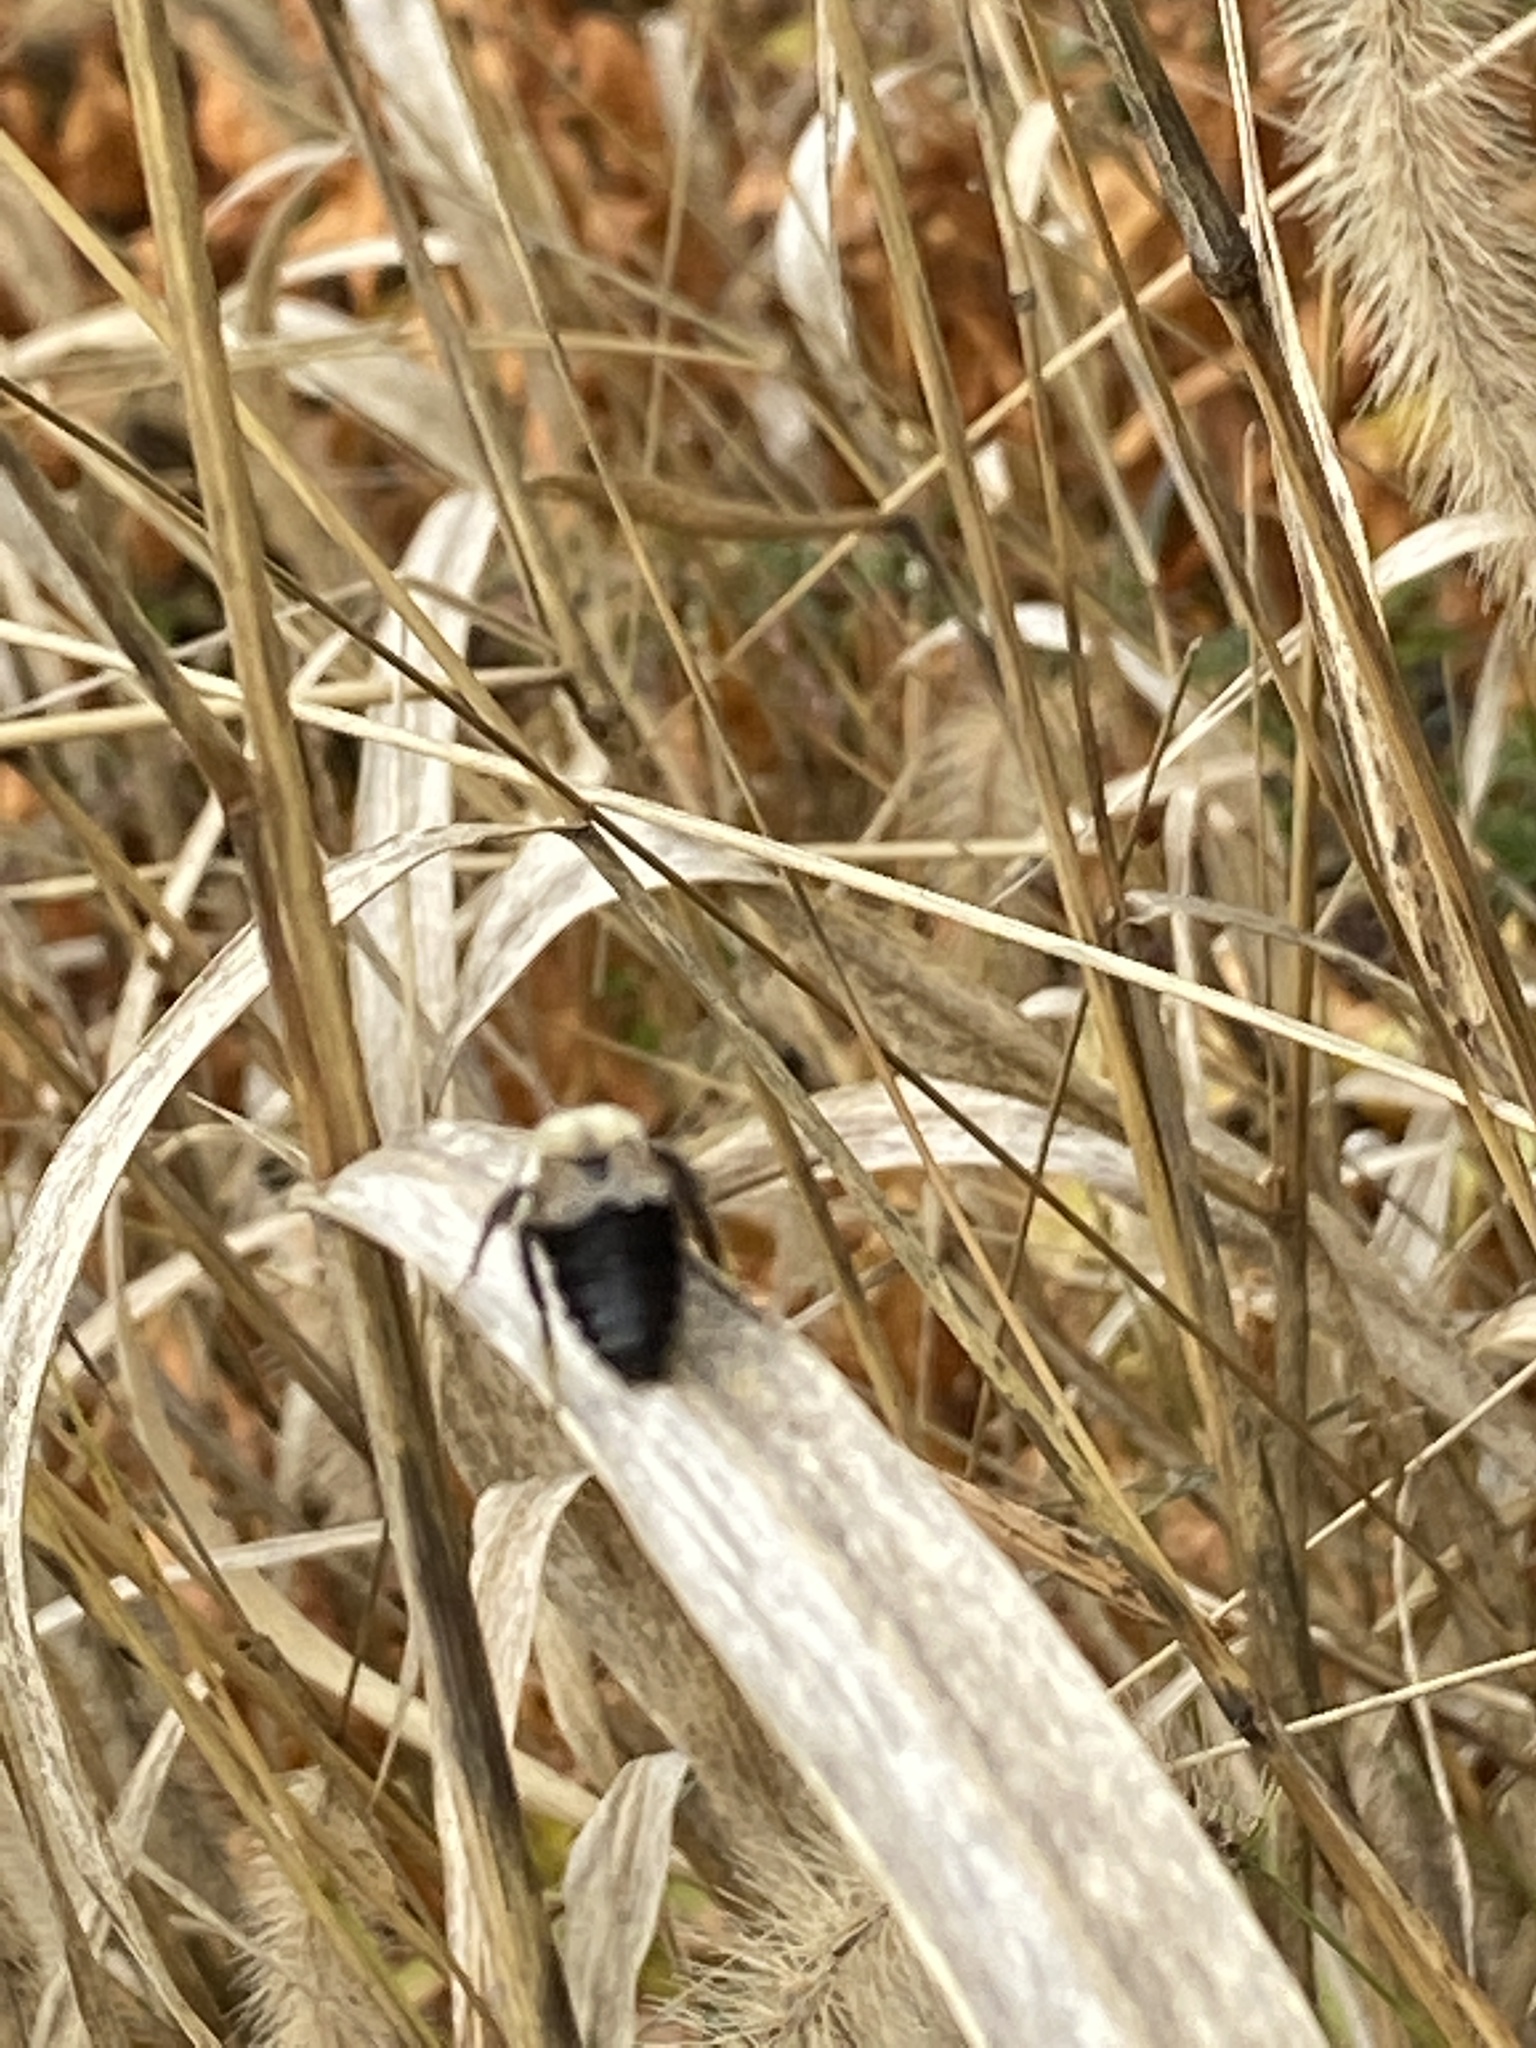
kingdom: Animalia
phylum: Arthropoda
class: Insecta
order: Hymenoptera
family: Apidae
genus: Bombus
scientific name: Bombus impatiens
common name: Common eastern bumble bee
